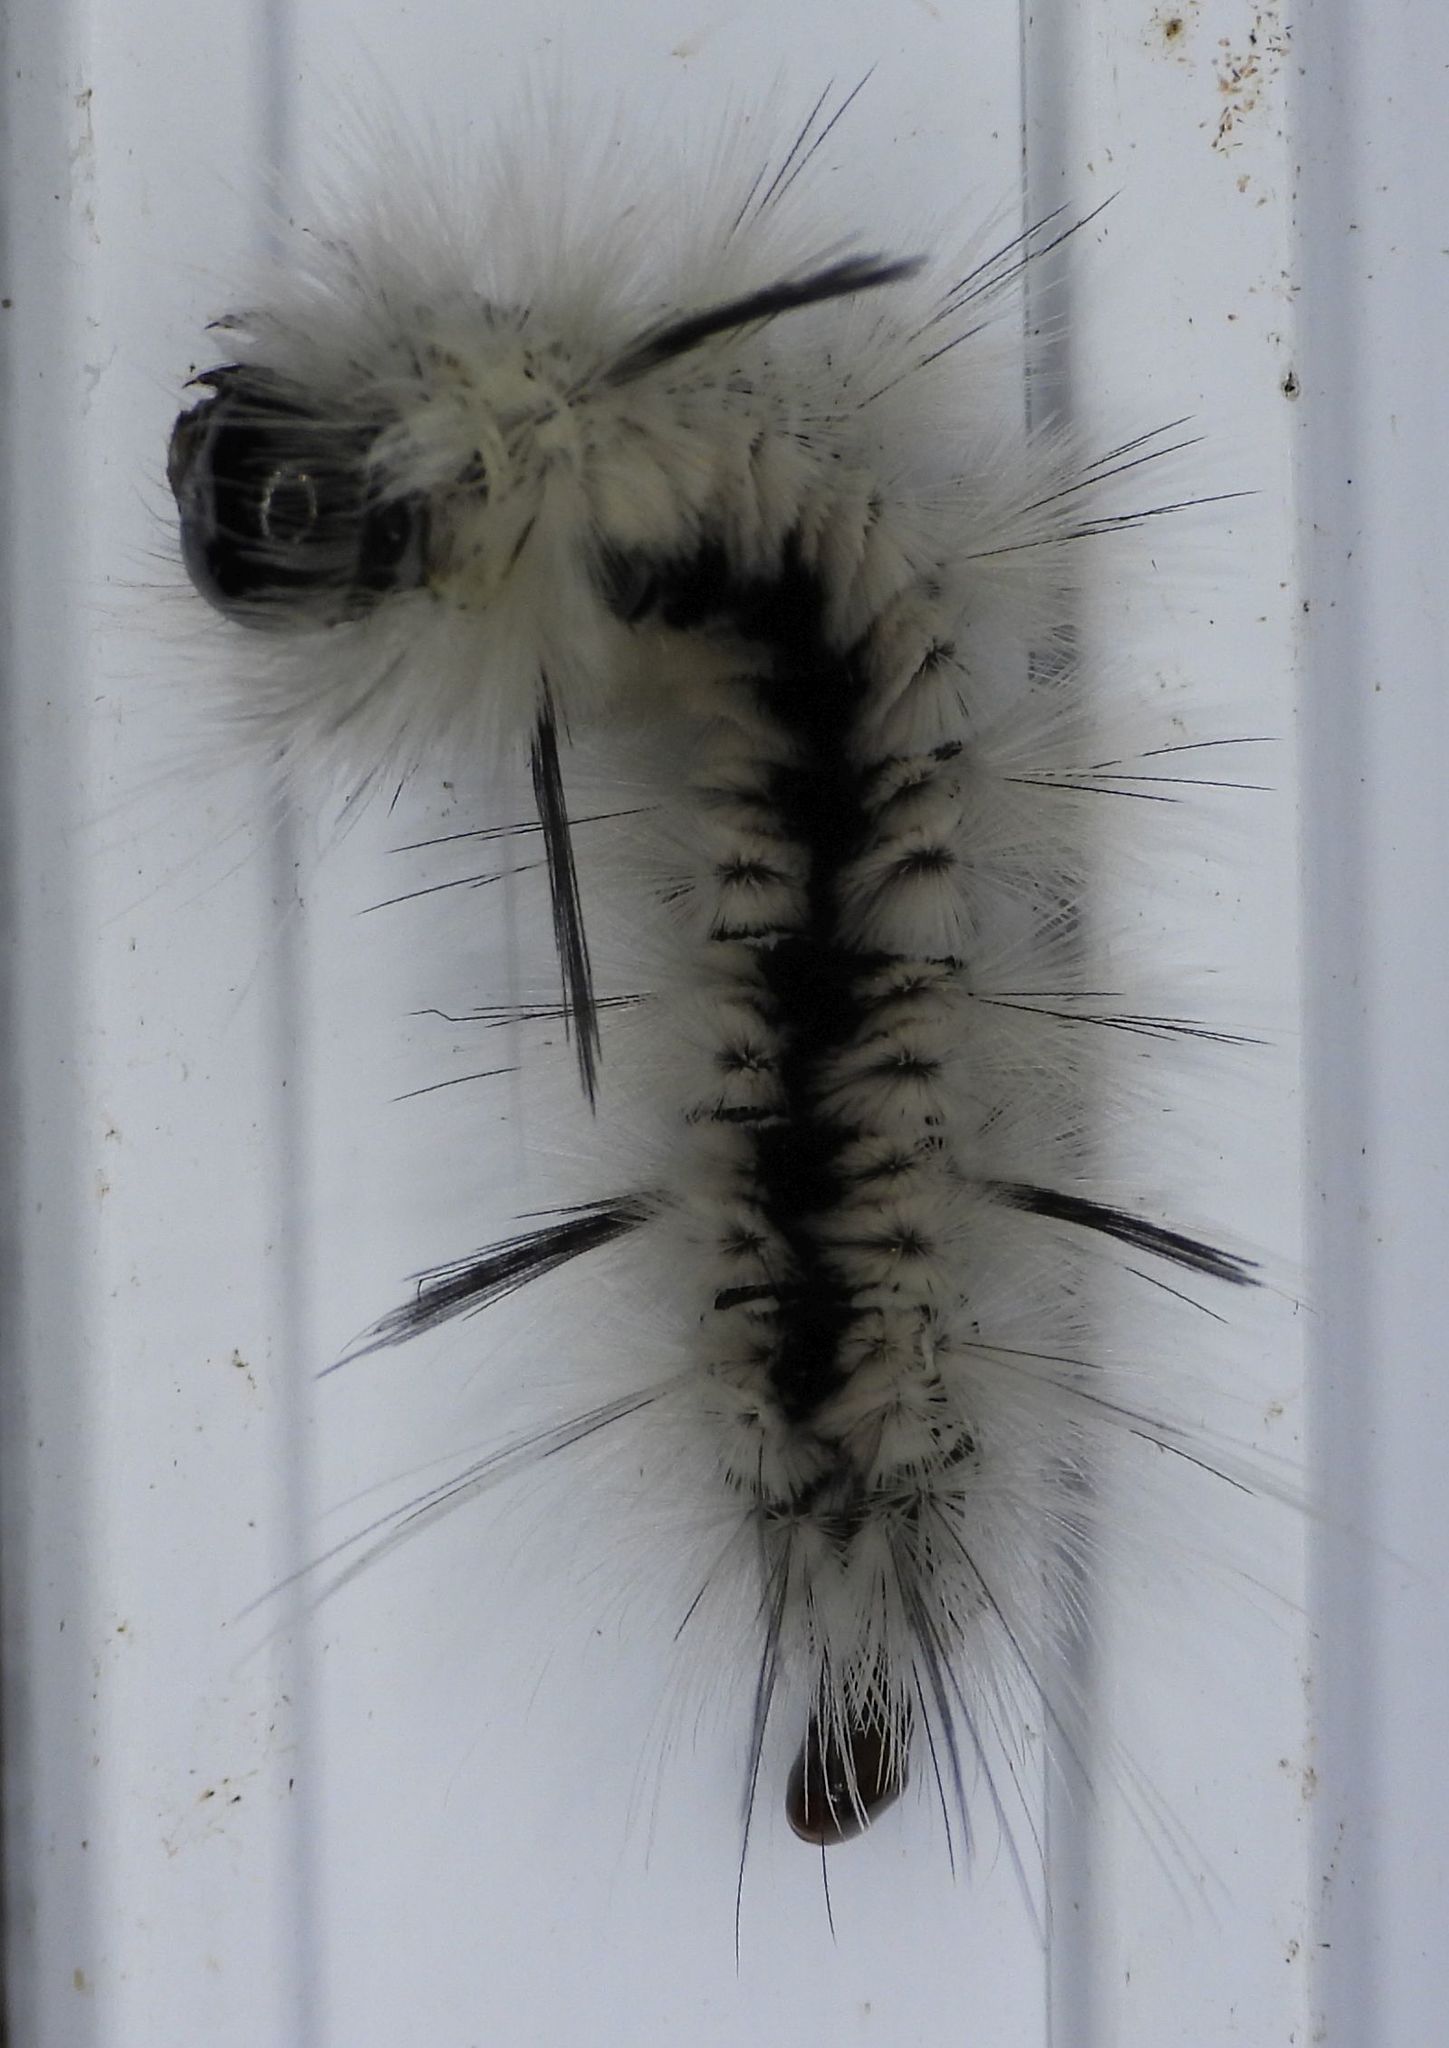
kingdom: Animalia
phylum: Arthropoda
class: Insecta
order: Lepidoptera
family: Erebidae
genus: Lophocampa
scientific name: Lophocampa caryae
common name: Hickory tussock moth
